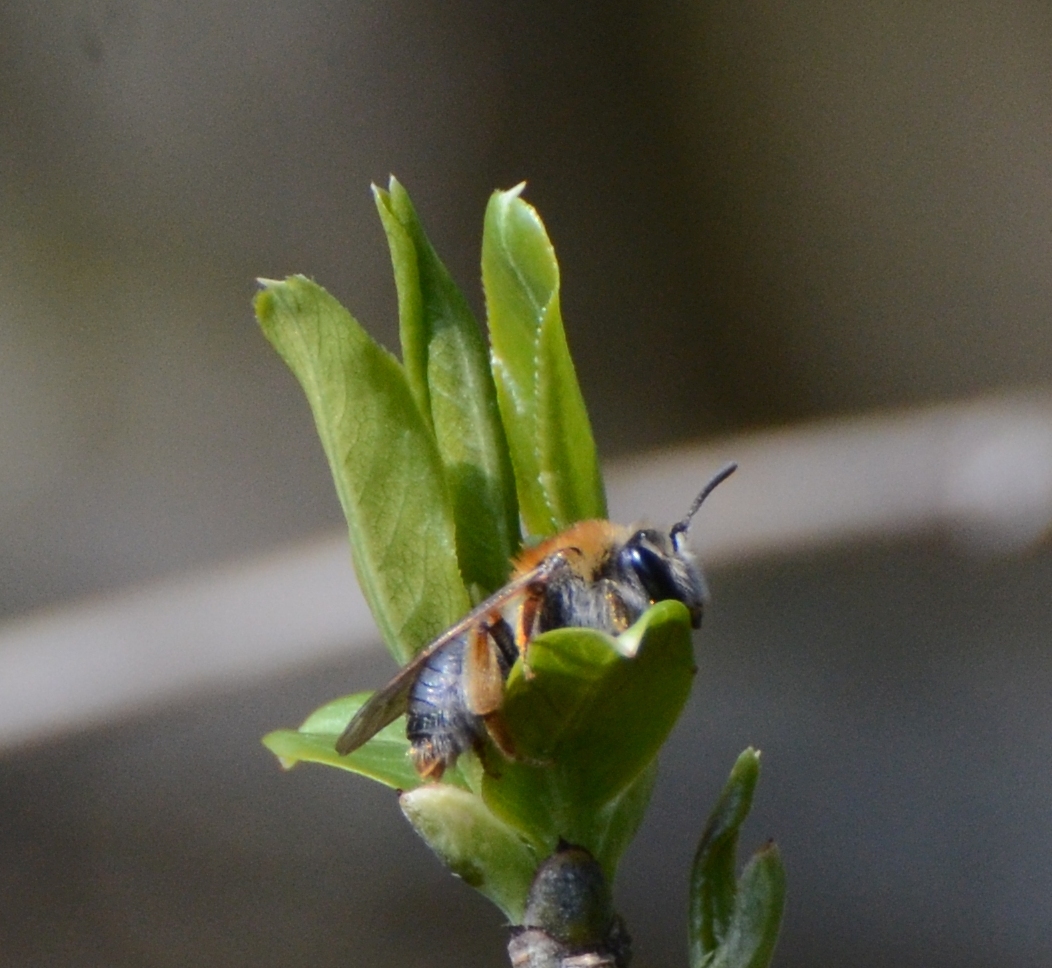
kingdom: Animalia
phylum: Arthropoda
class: Insecta
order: Hymenoptera
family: Andrenidae
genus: Andrena
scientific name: Andrena haemorrhoa
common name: Early mining bee
